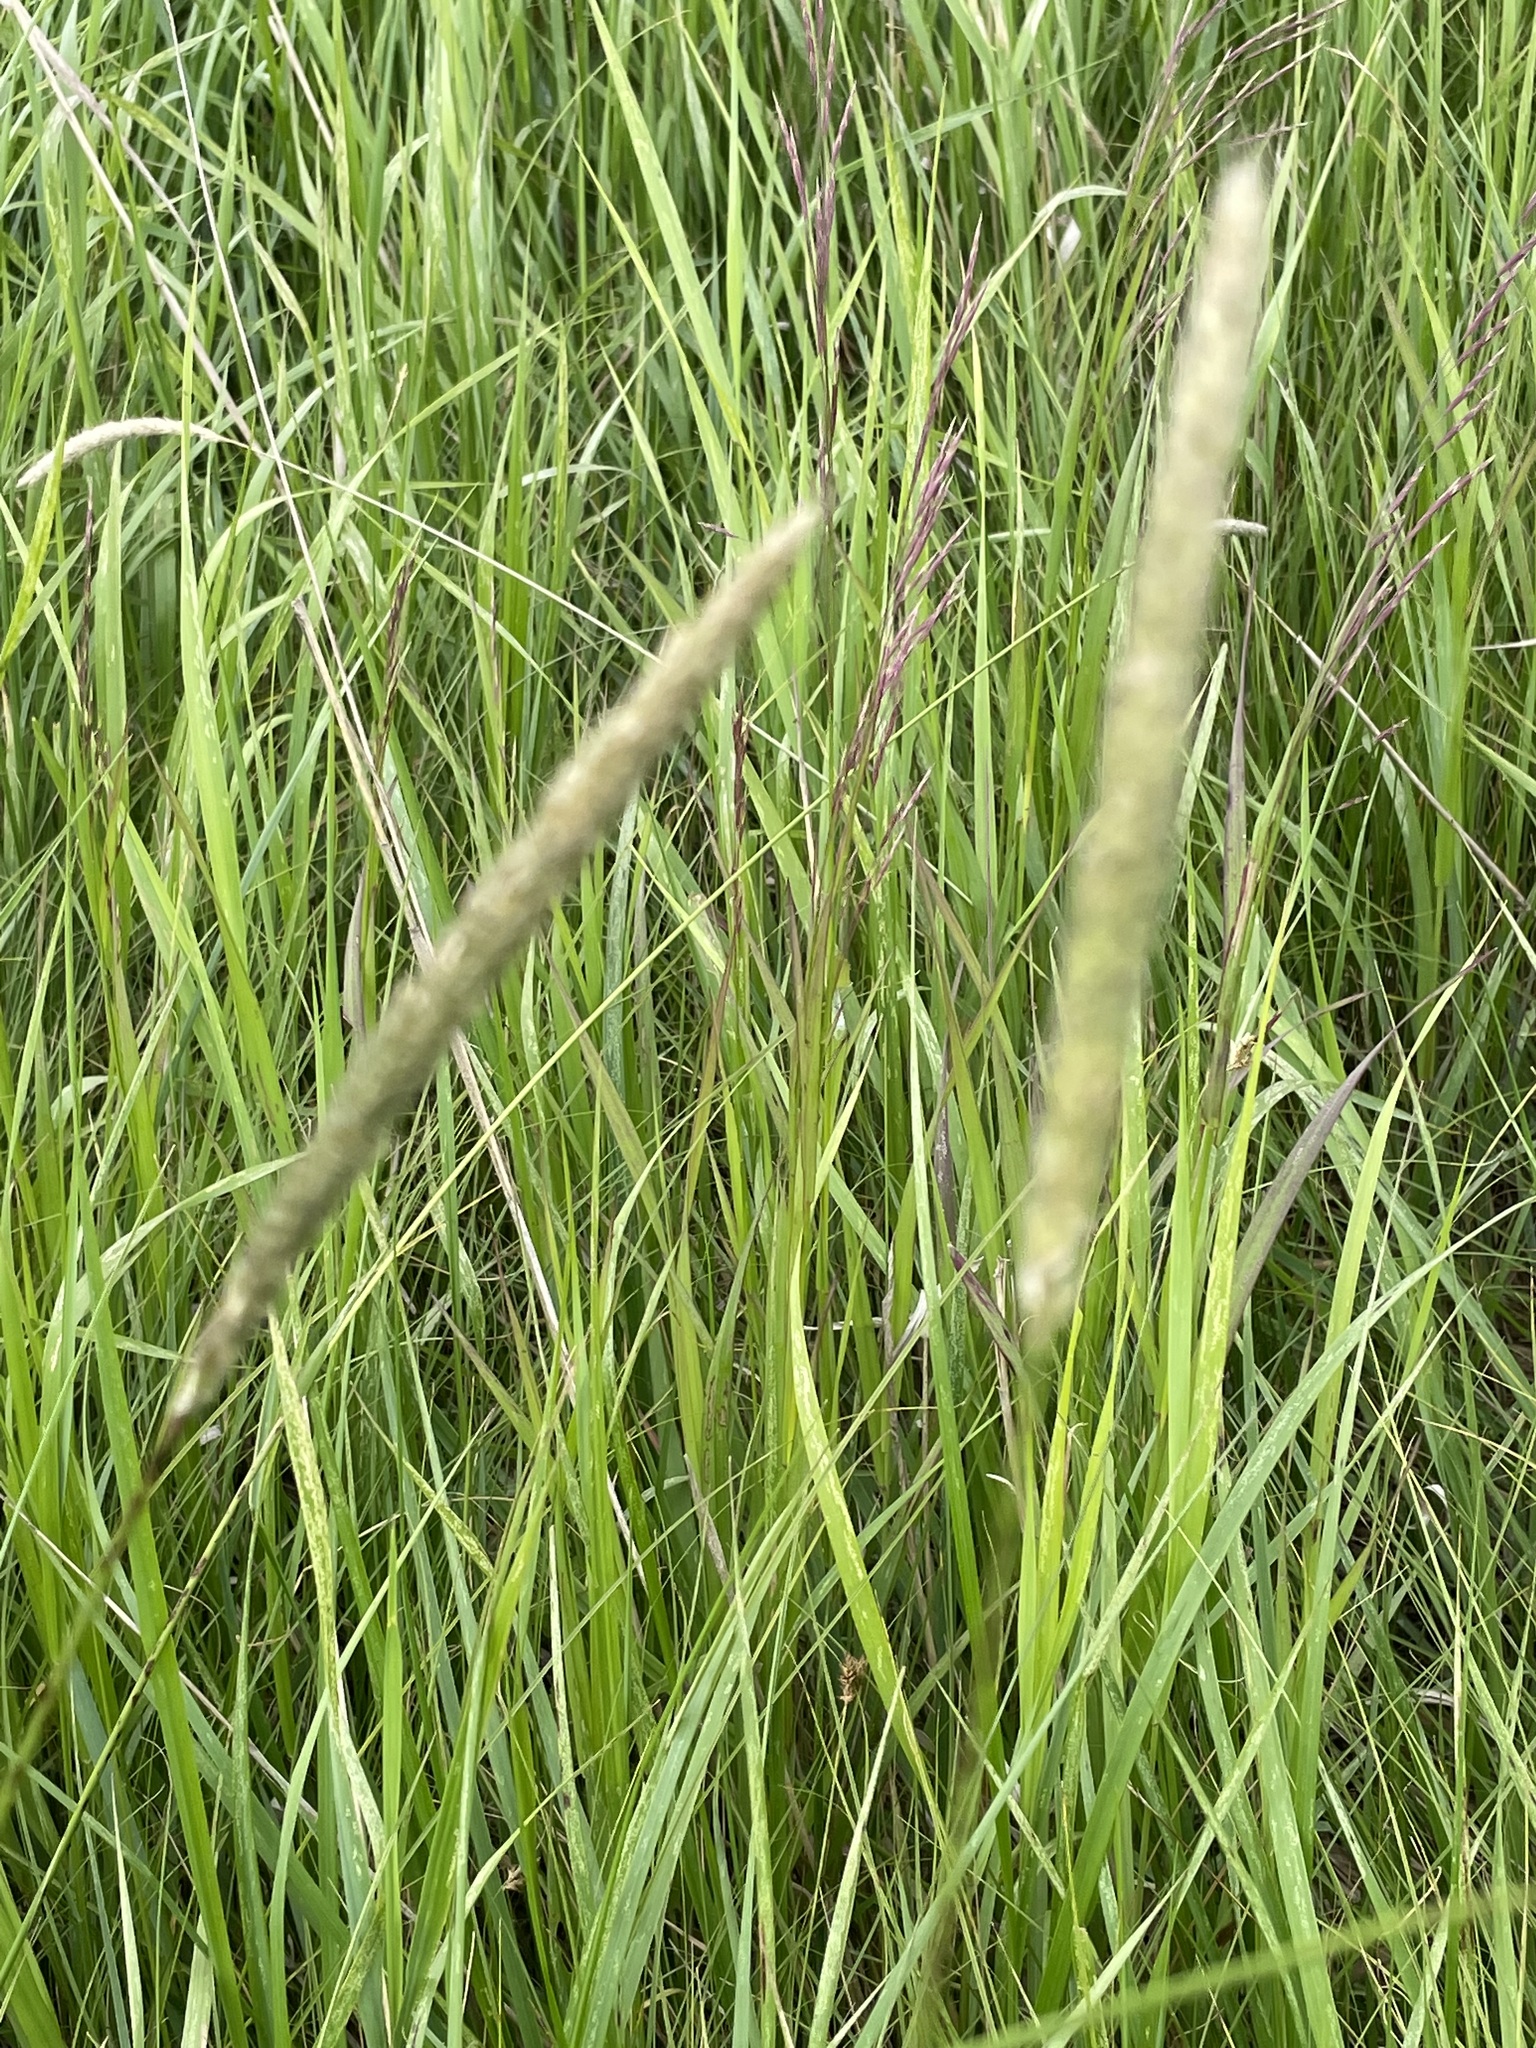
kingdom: Plantae
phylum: Tracheophyta
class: Liliopsida
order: Poales
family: Poaceae
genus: Phleum
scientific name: Phleum pratense
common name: Timothy grass
